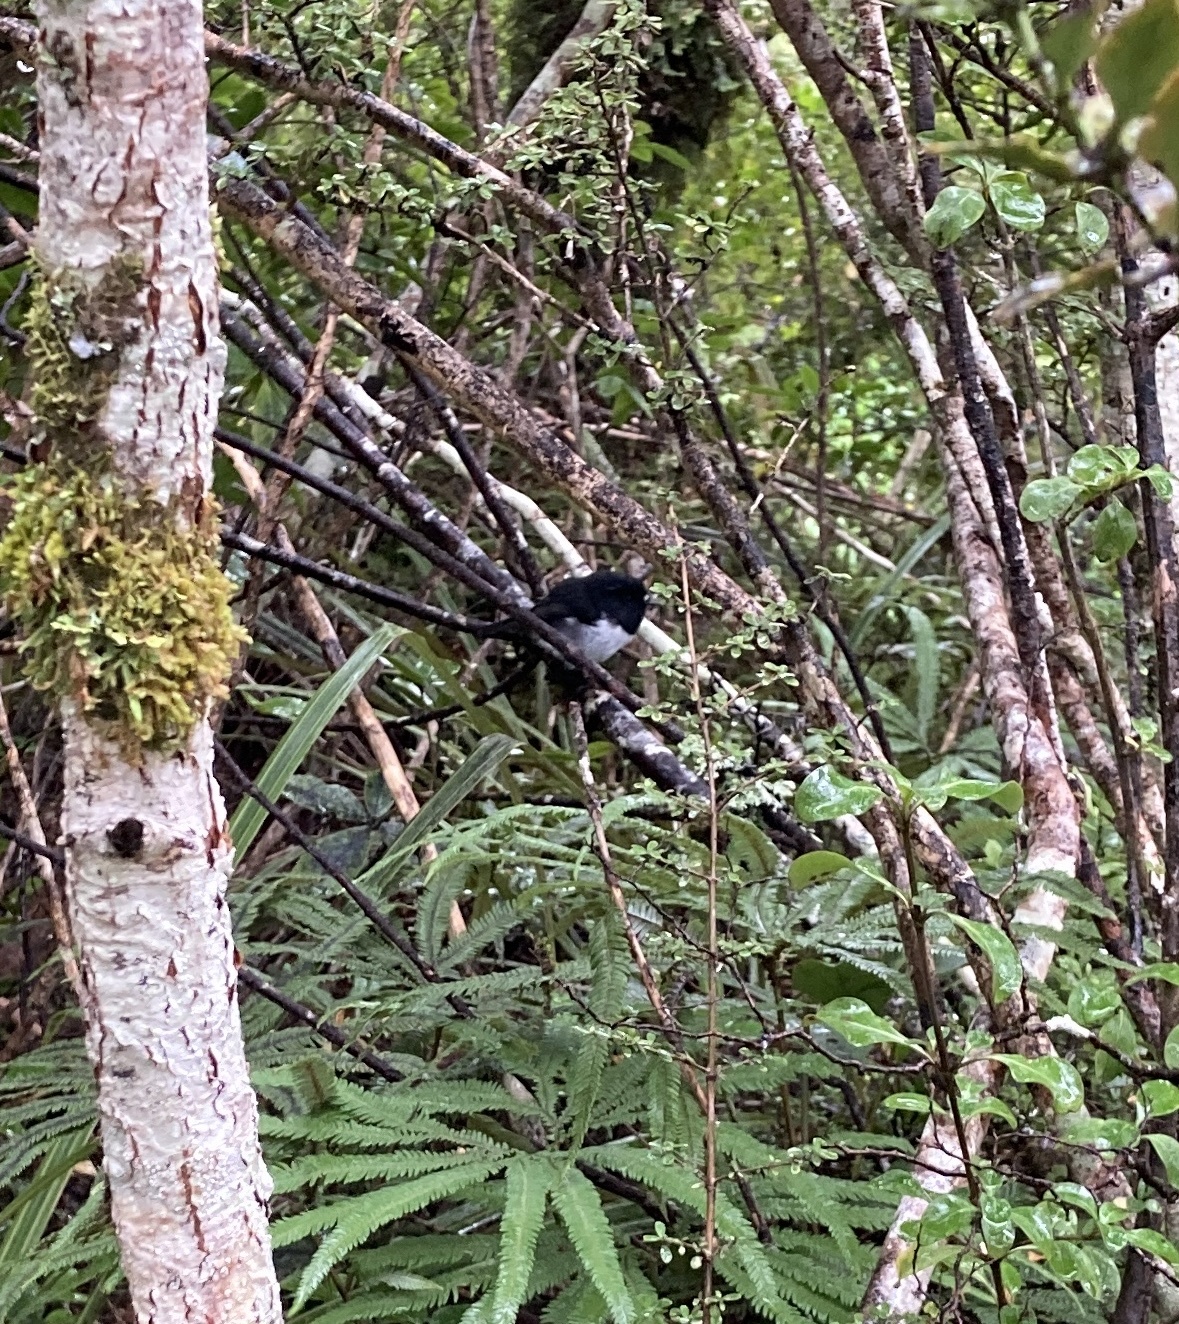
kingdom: Animalia
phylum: Chordata
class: Aves
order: Passeriformes
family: Petroicidae
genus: Petroica
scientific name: Petroica macrocephala
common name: Tomtit
